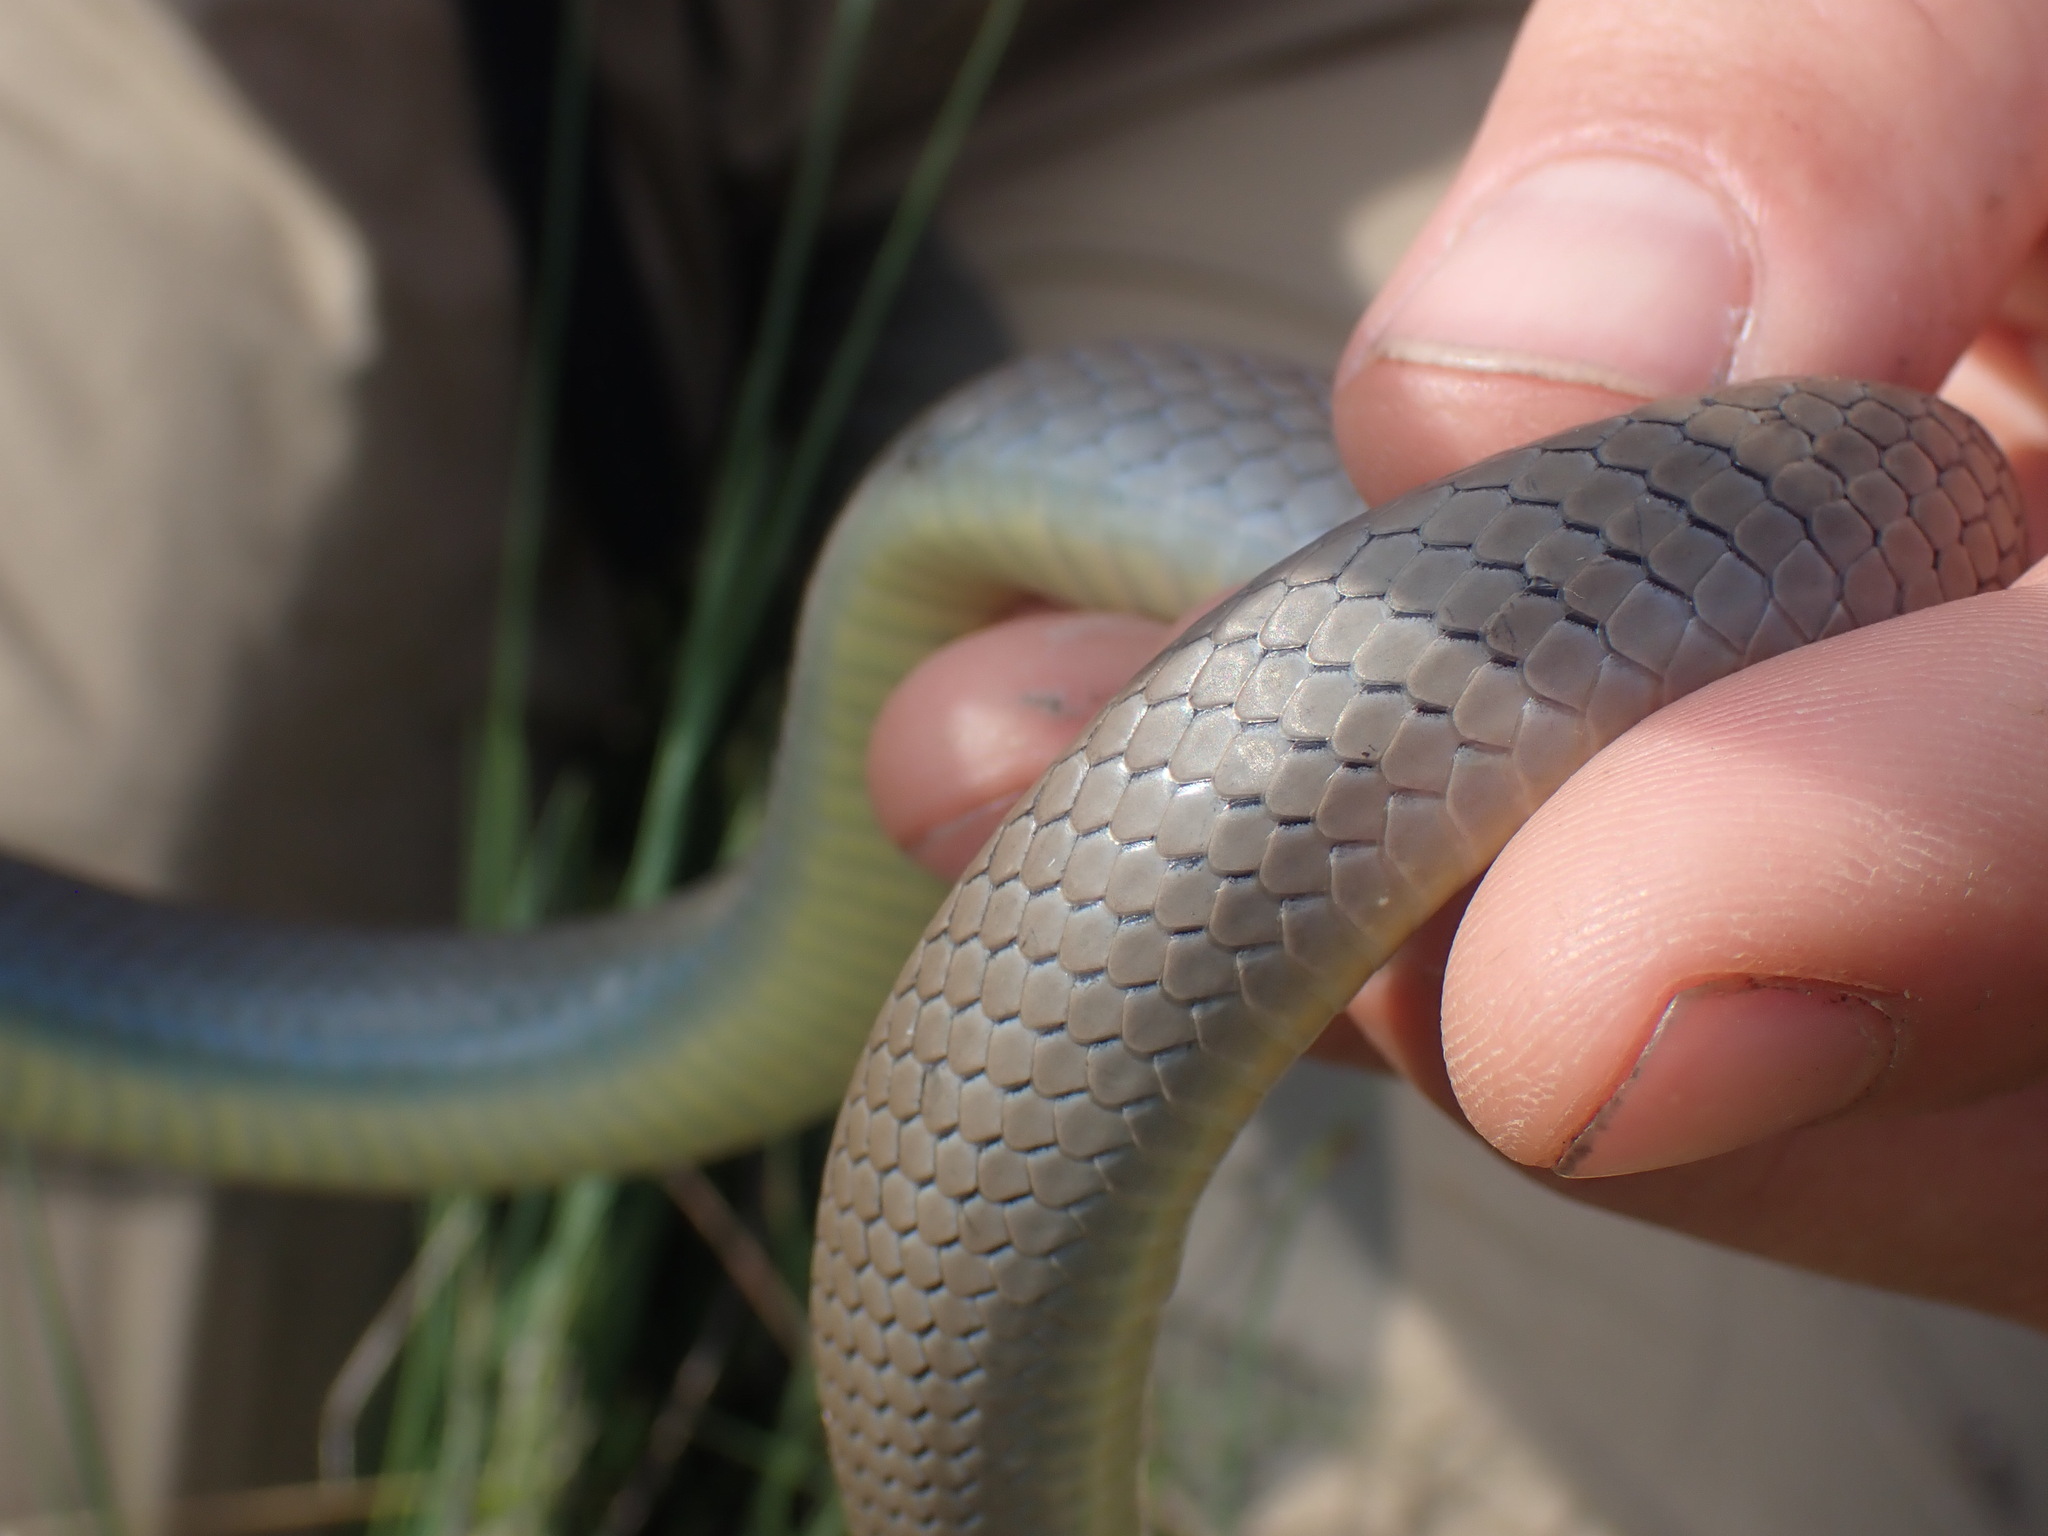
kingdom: Animalia
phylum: Chordata
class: Squamata
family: Colubridae
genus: Coluber
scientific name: Coluber constrictor
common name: Eastern racer
